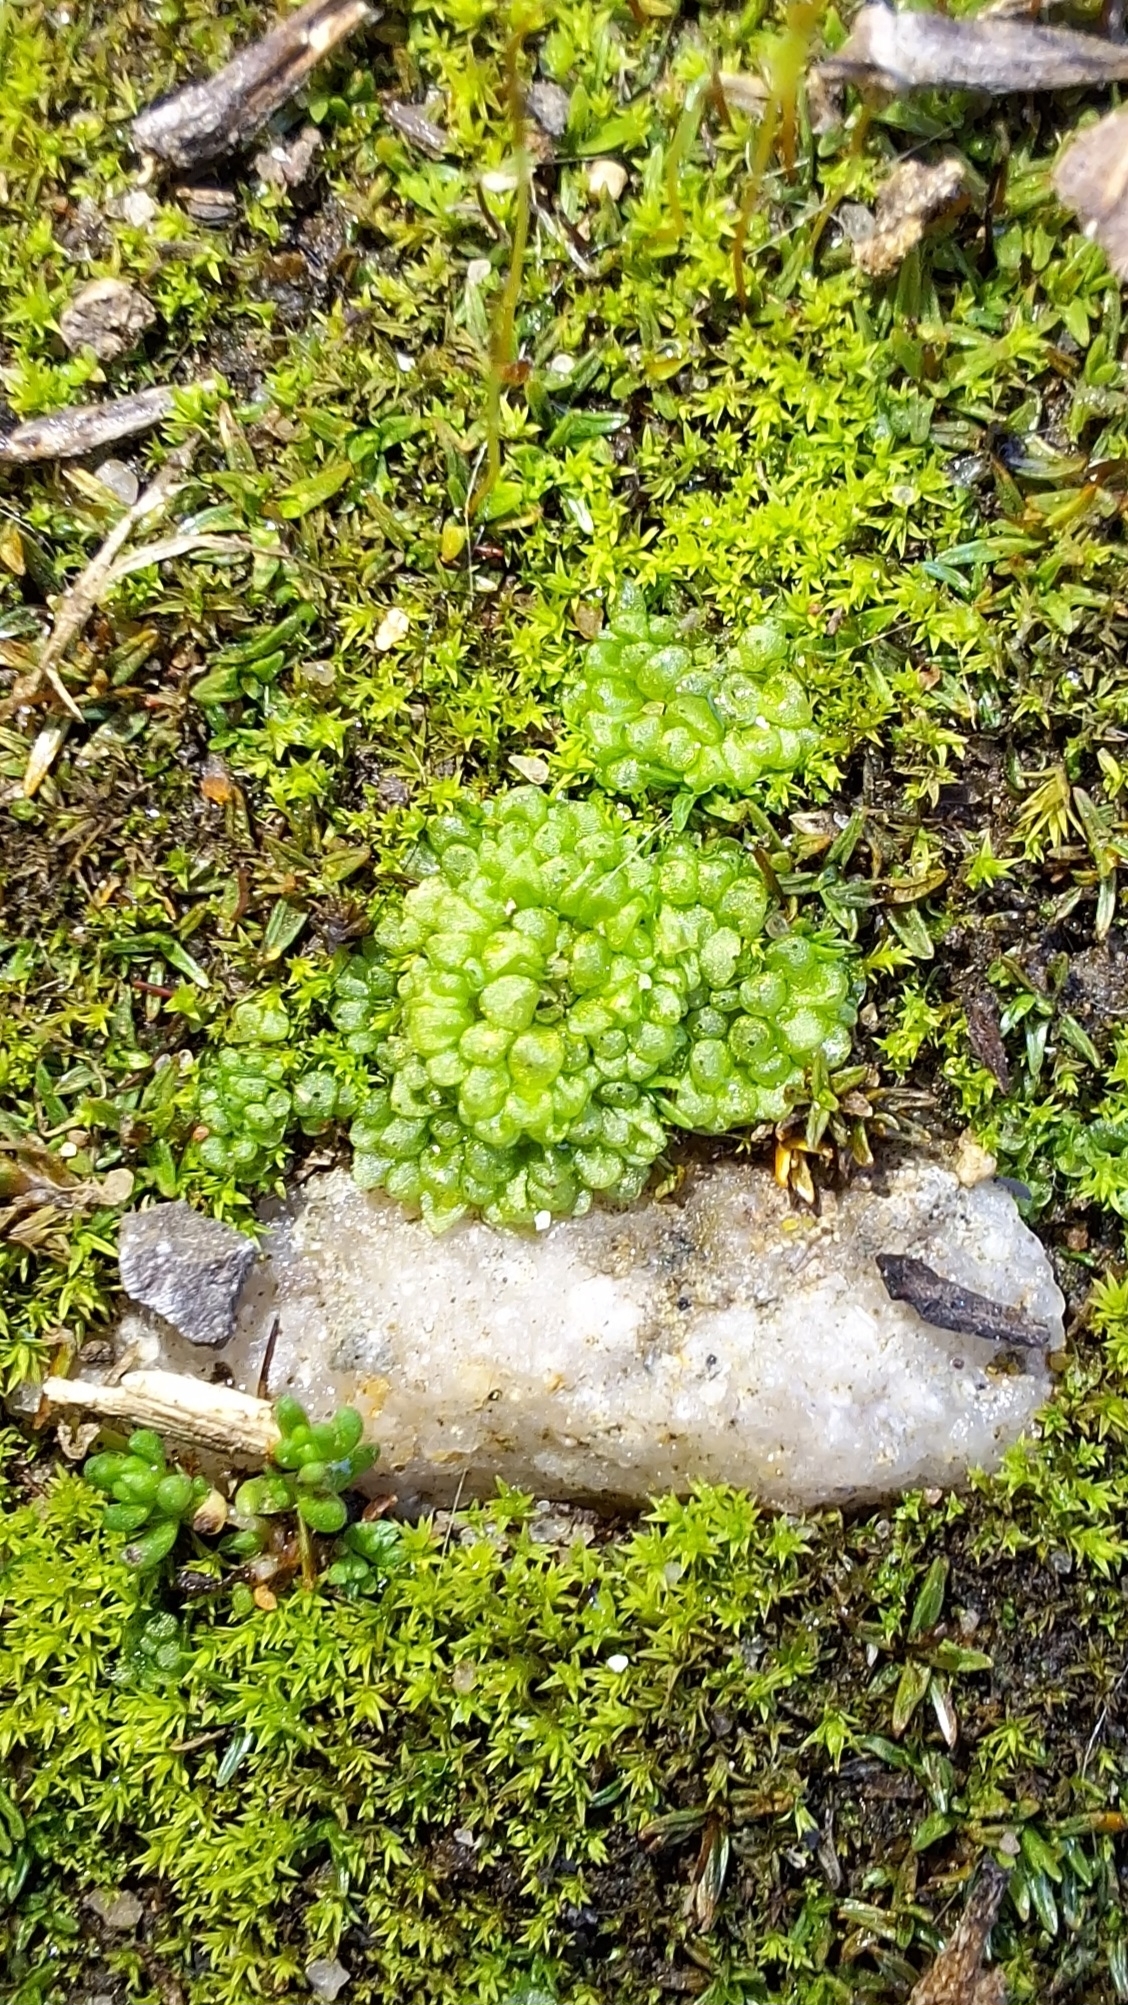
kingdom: Plantae
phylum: Marchantiophyta
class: Marchantiopsida
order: Sphaerocarpales
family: Sphaerocarpaceae
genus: Sphaerocarpos
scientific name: Sphaerocarpos texanus
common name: Texas balloonwort
